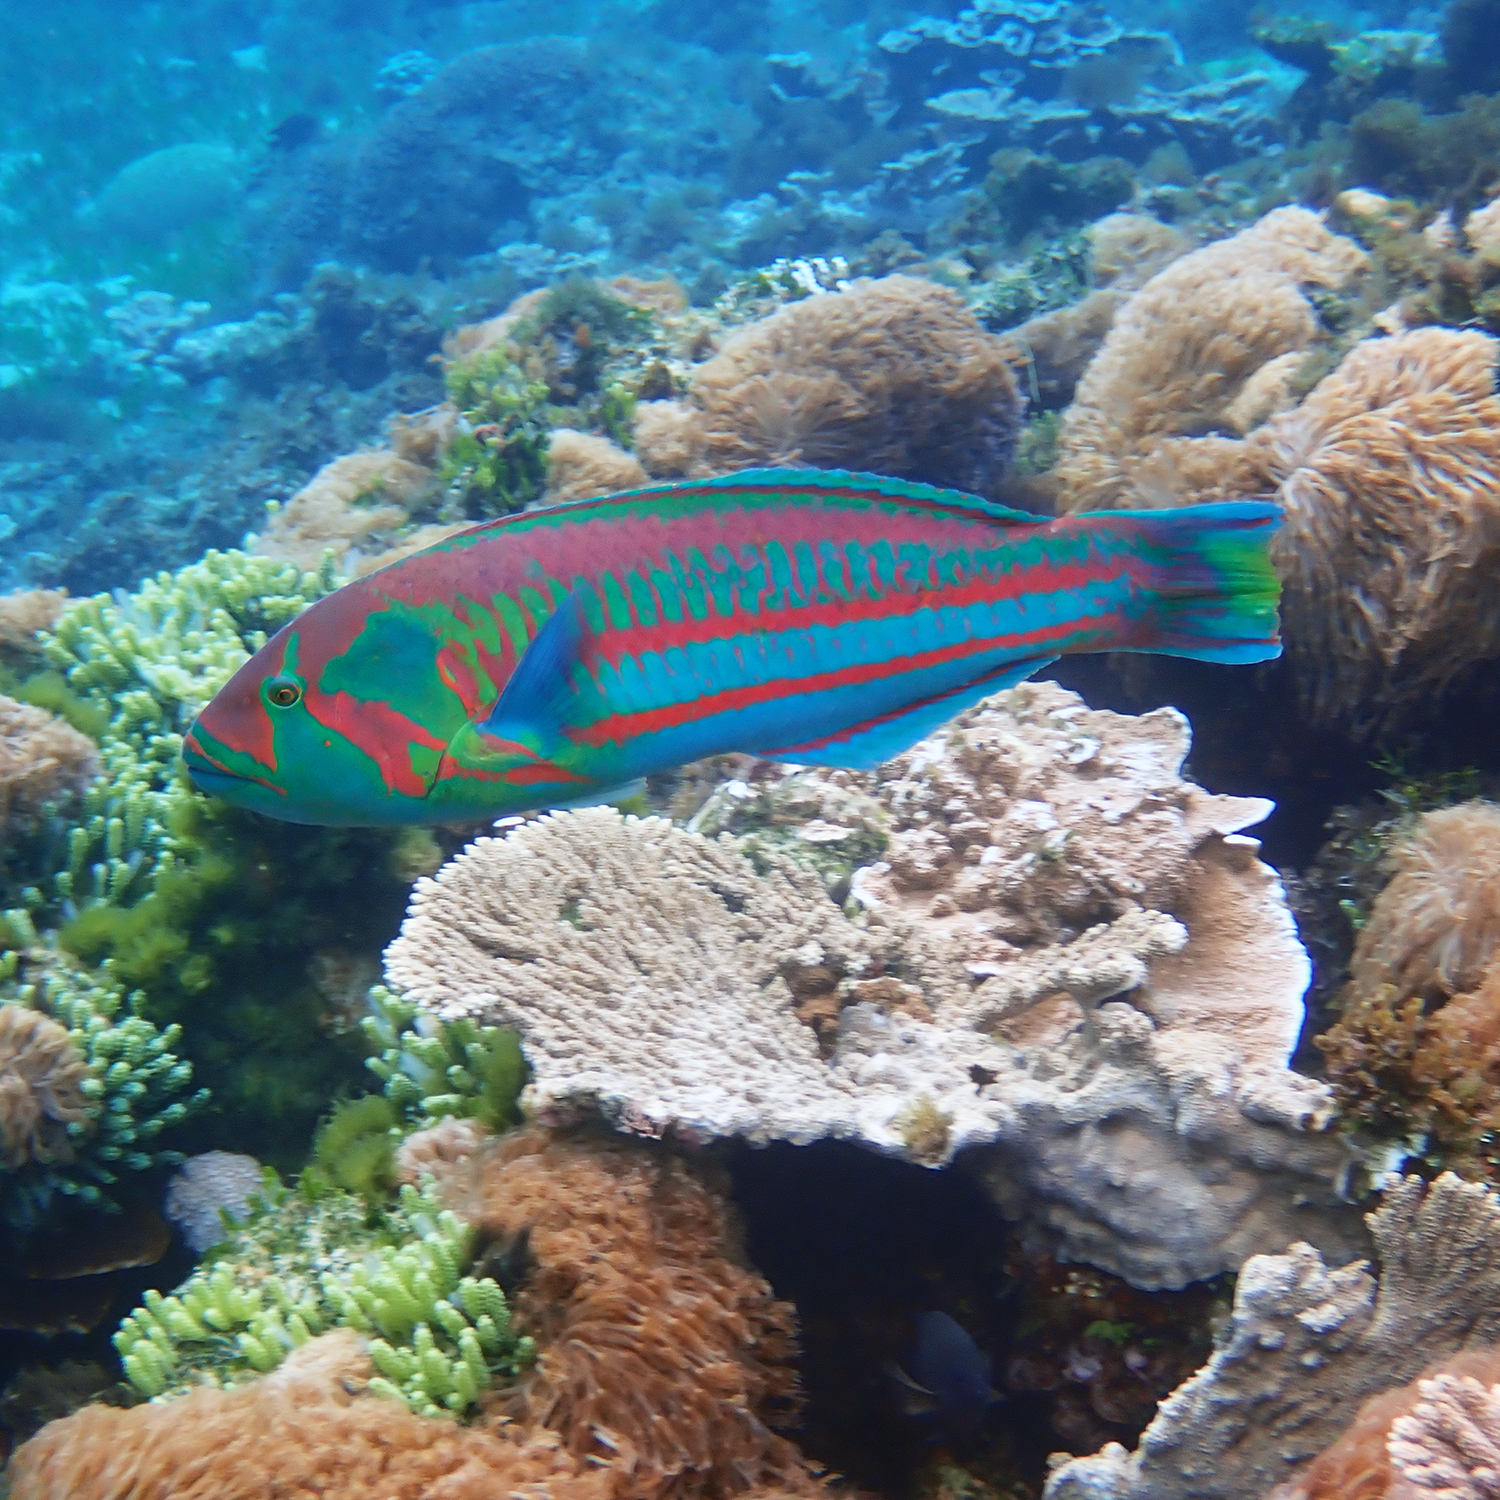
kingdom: Animalia
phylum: Chordata
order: Perciformes
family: Labridae
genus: Thalassoma
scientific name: Thalassoma purpureum
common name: Parrotfish
